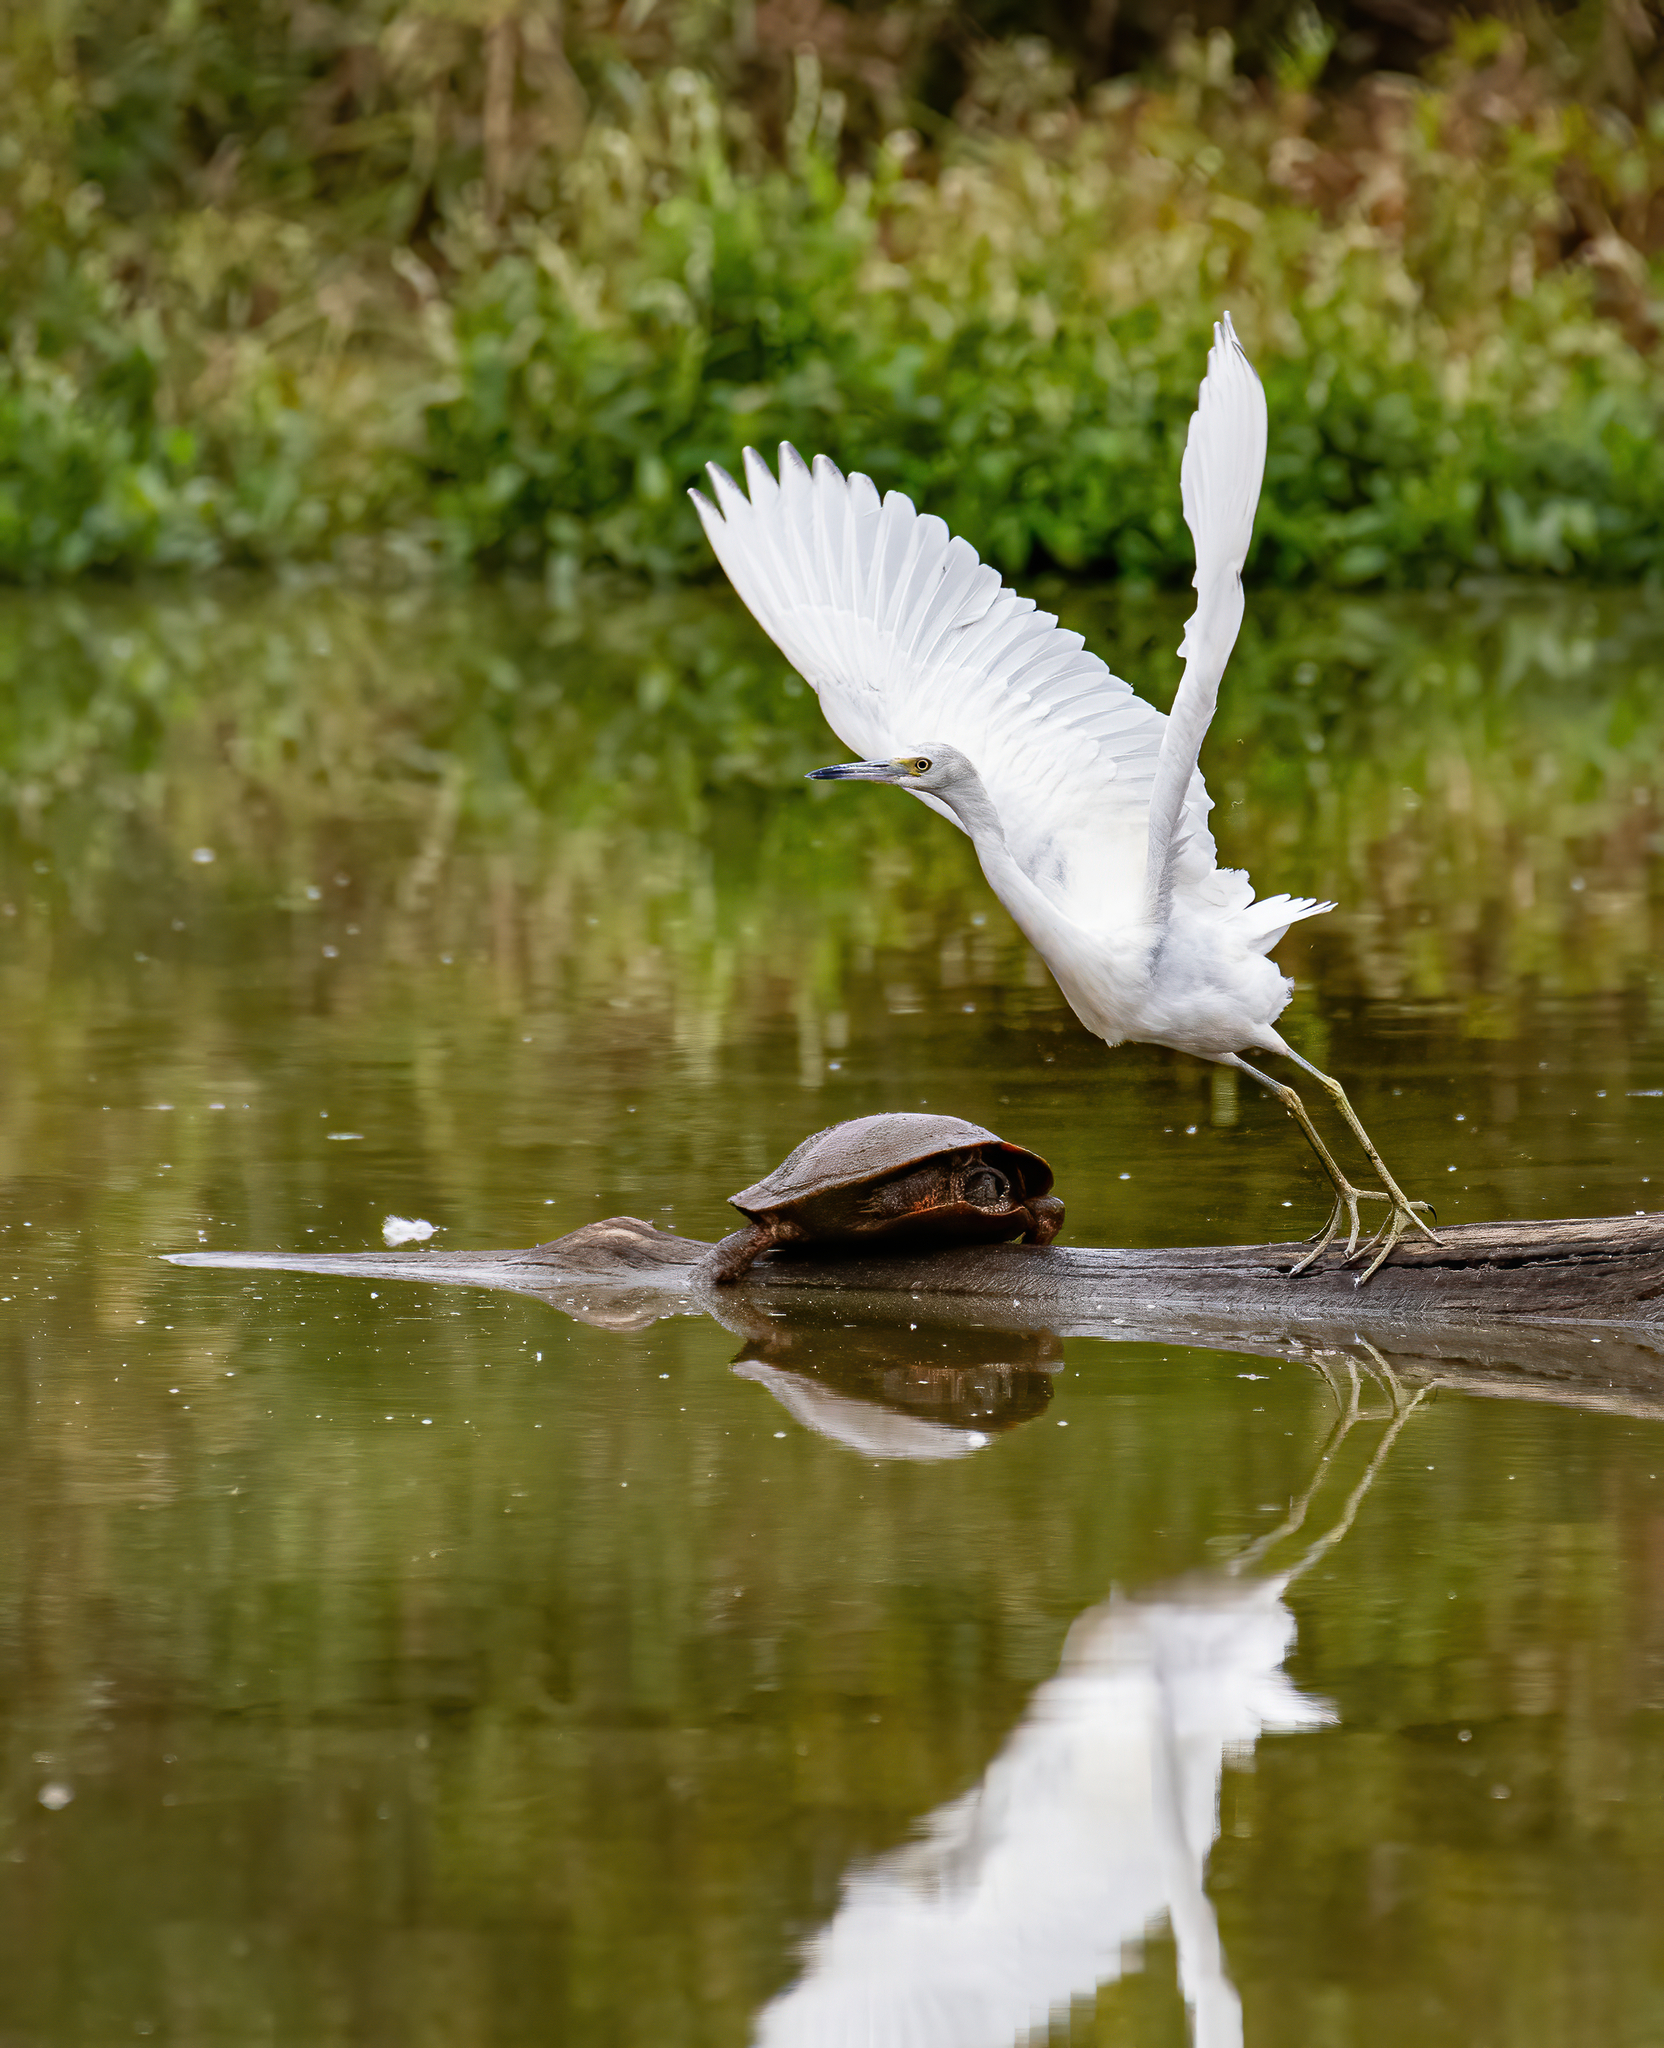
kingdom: Animalia
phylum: Chordata
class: Aves
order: Pelecaniformes
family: Ardeidae
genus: Egretta
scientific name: Egretta caerulea
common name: Little blue heron
